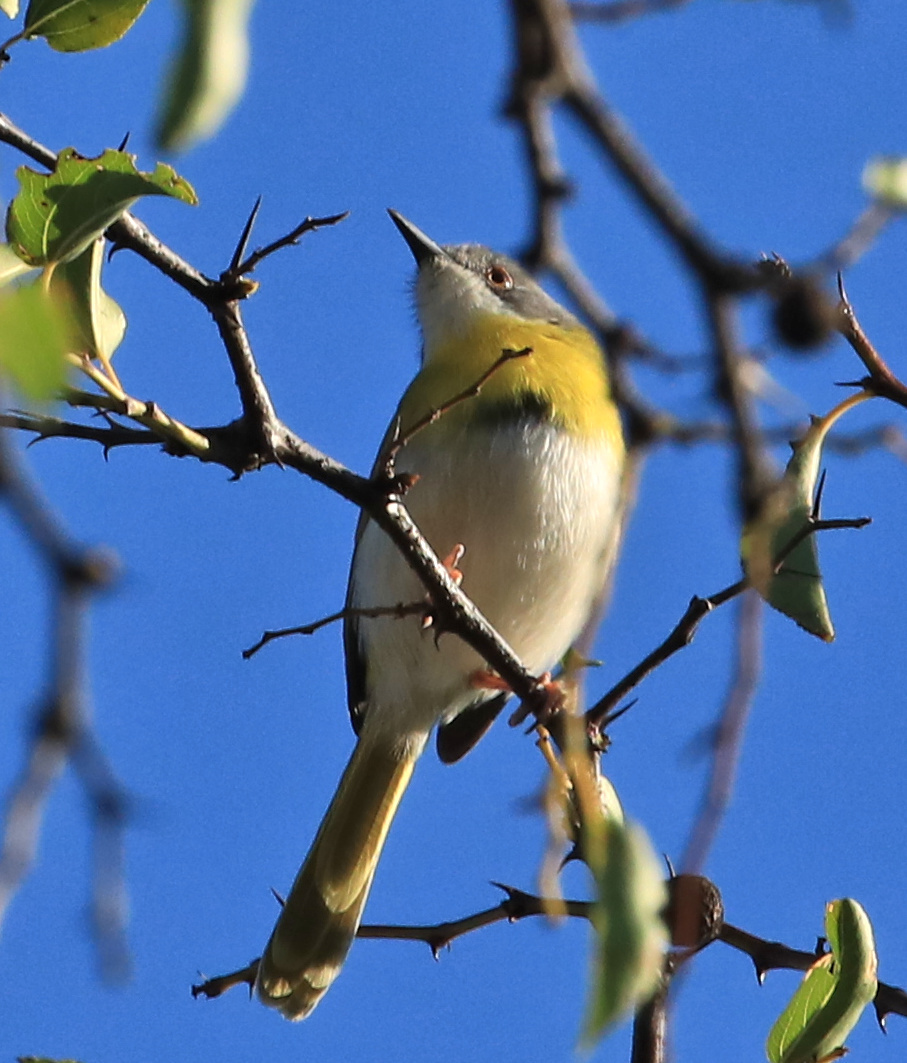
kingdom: Animalia
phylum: Chordata
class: Aves
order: Passeriformes
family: Cisticolidae
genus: Apalis
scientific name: Apalis flavida
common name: Yellow-breasted apalis
